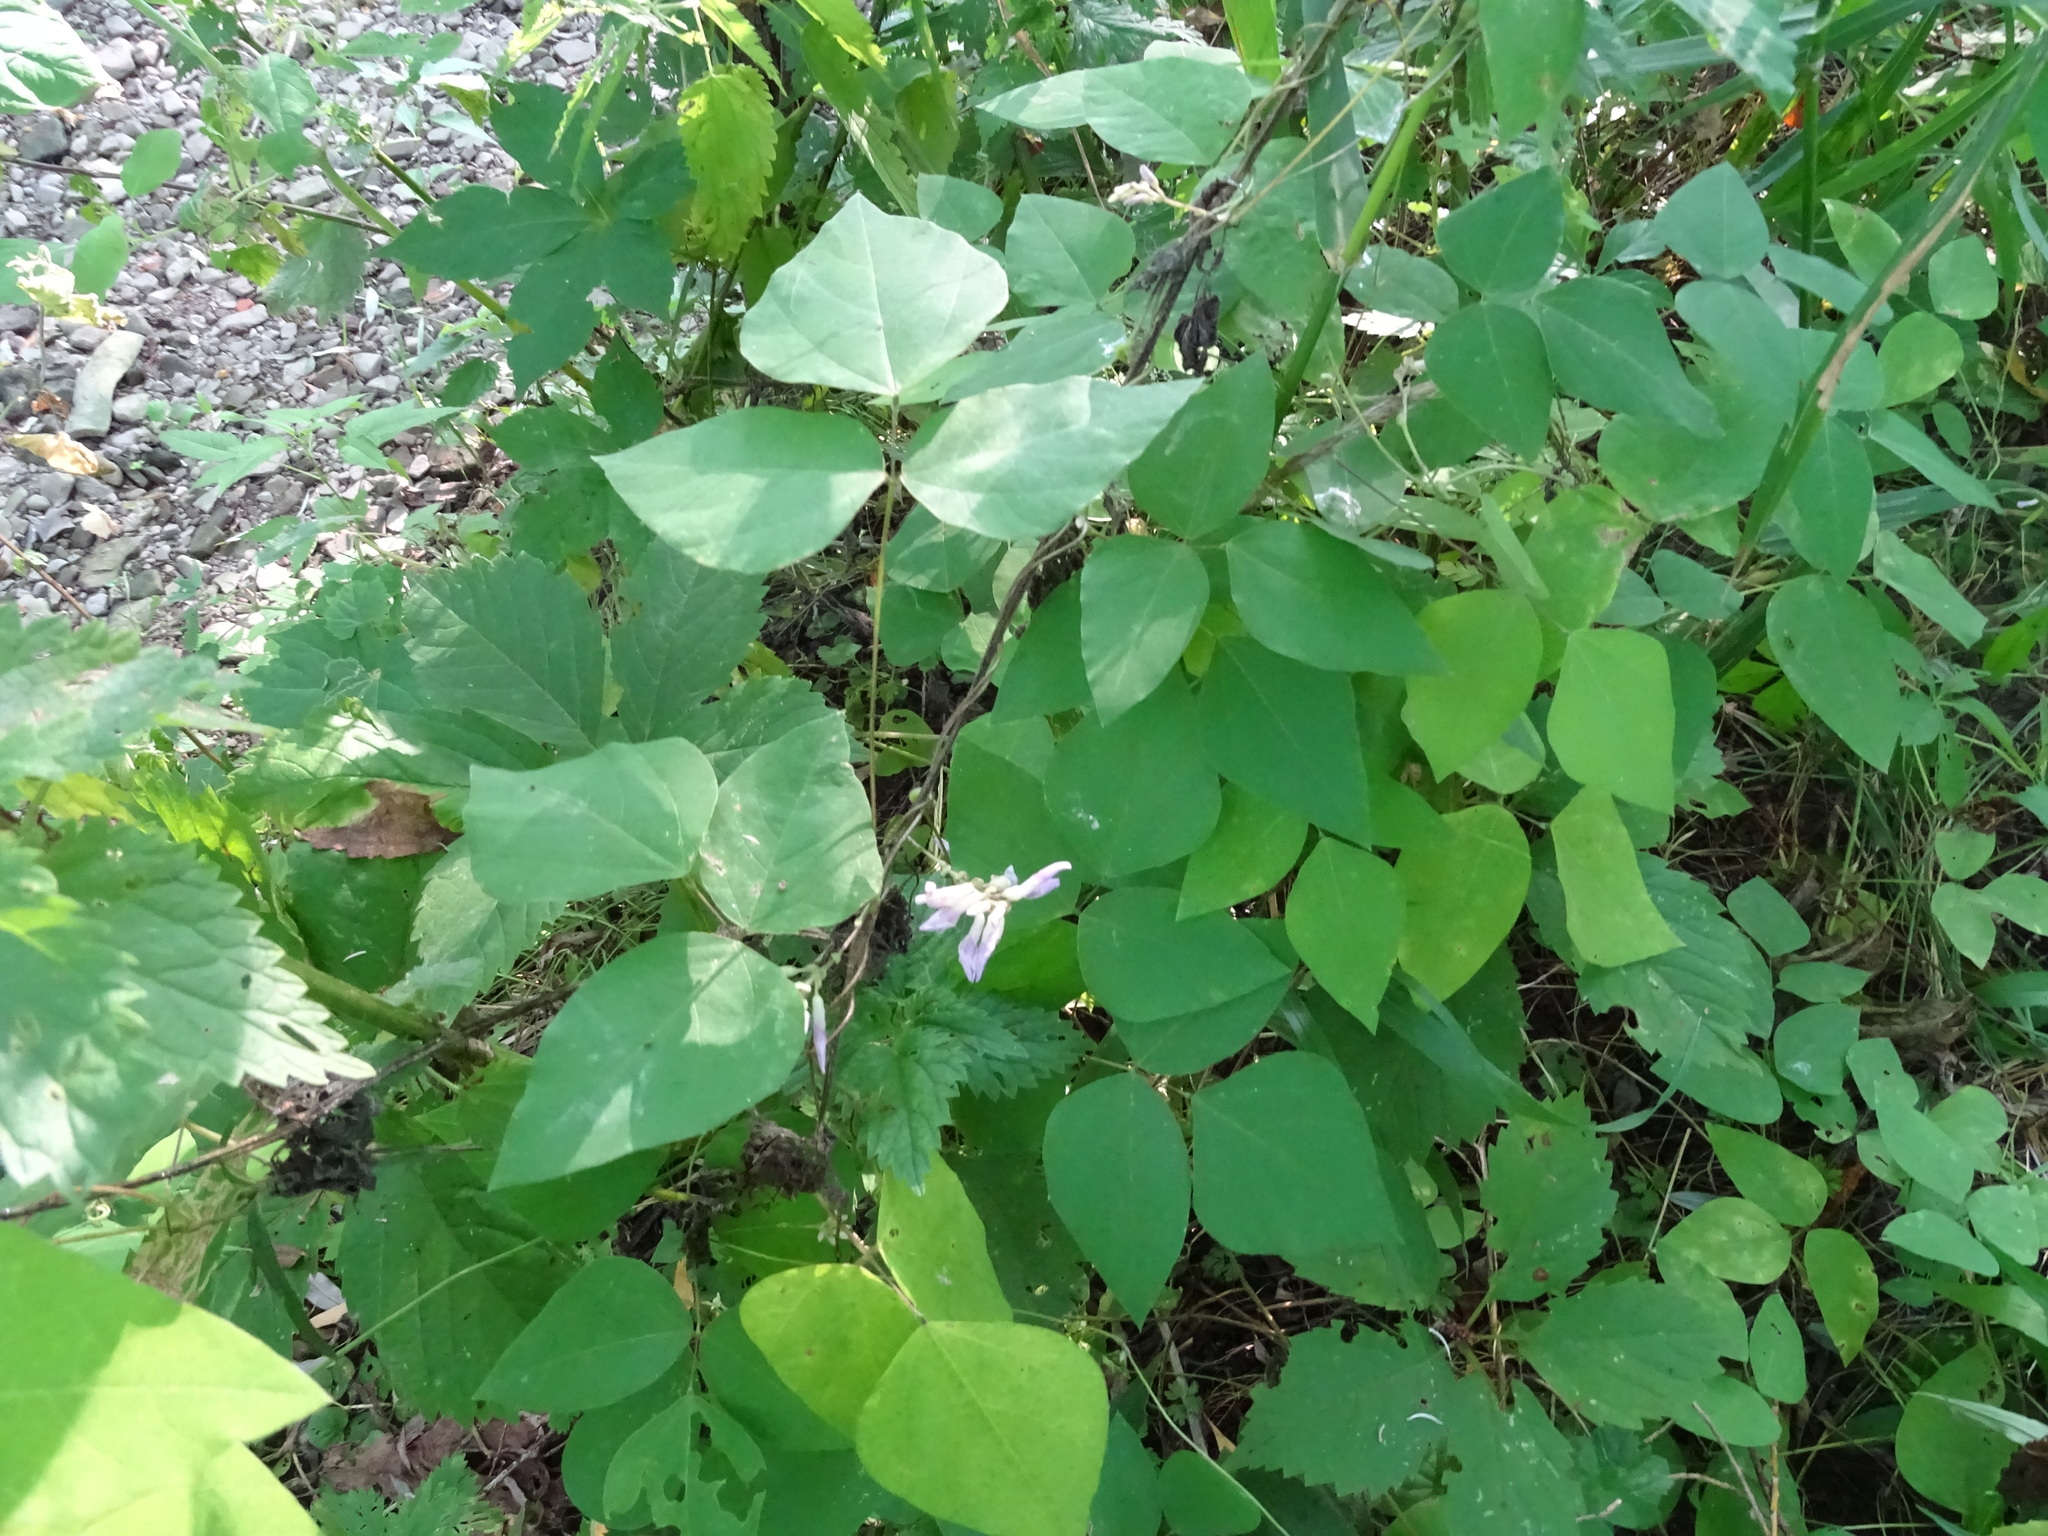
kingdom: Plantae
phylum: Tracheophyta
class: Magnoliopsida
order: Fabales
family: Fabaceae
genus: Amphicarpaea
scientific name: Amphicarpaea bracteata
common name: American hog peanut
